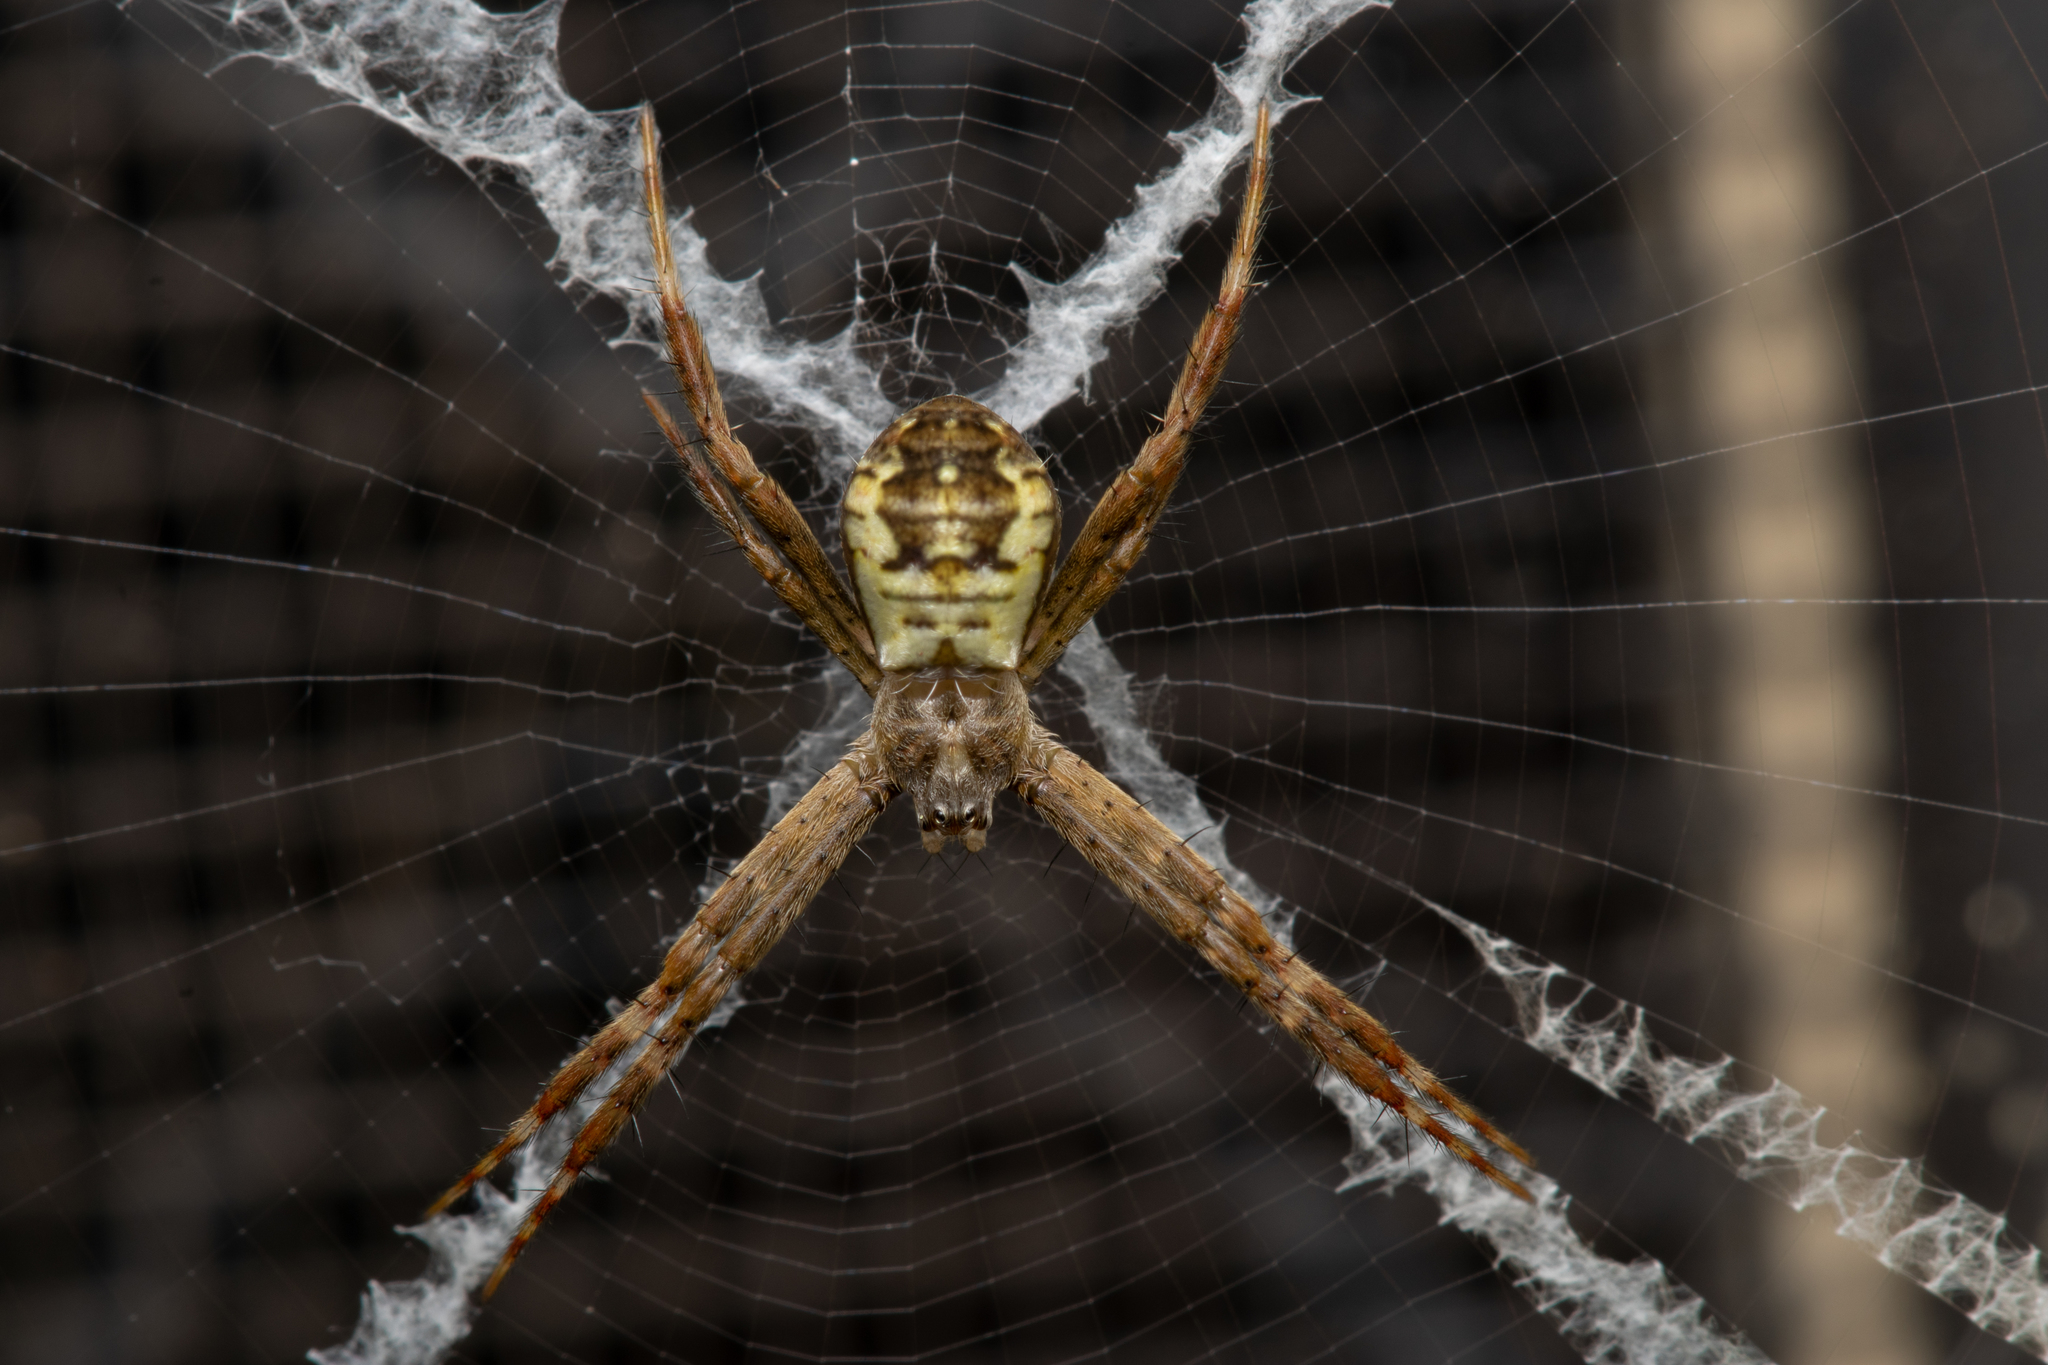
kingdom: Animalia
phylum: Arthropoda
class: Arachnida
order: Araneae
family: Araneidae
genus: Argiope
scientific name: Argiope keyserlingi
